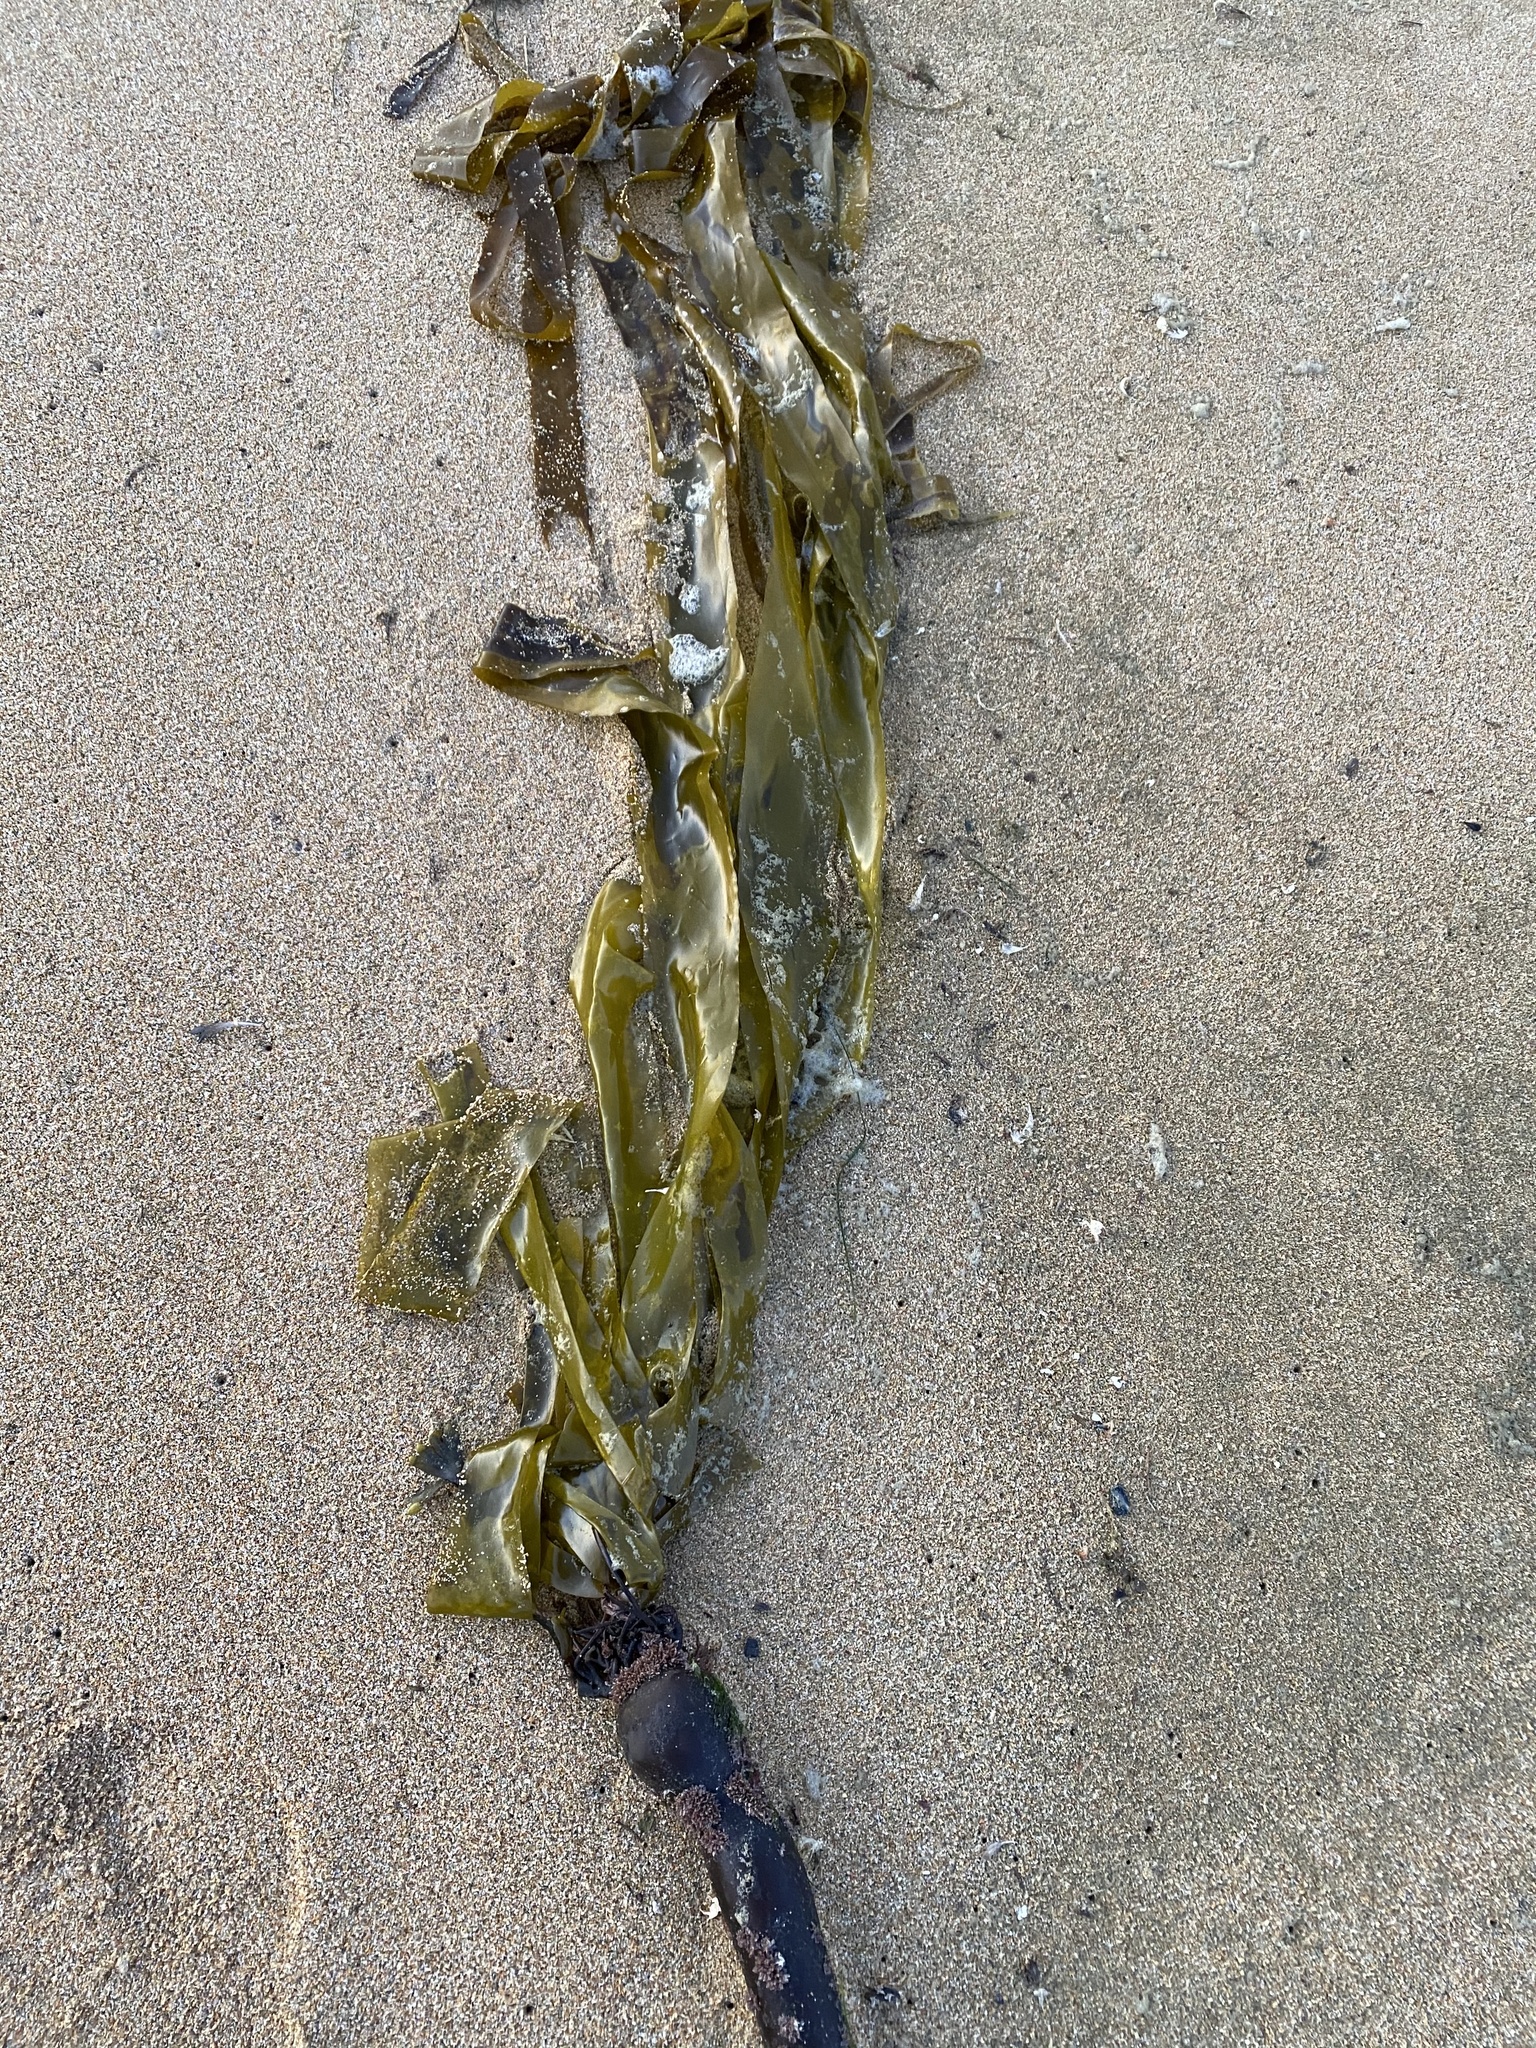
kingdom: Chromista
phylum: Ochrophyta
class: Phaeophyceae
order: Laminariales
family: Laminariaceae
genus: Nereocystis
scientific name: Nereocystis luetkeana
